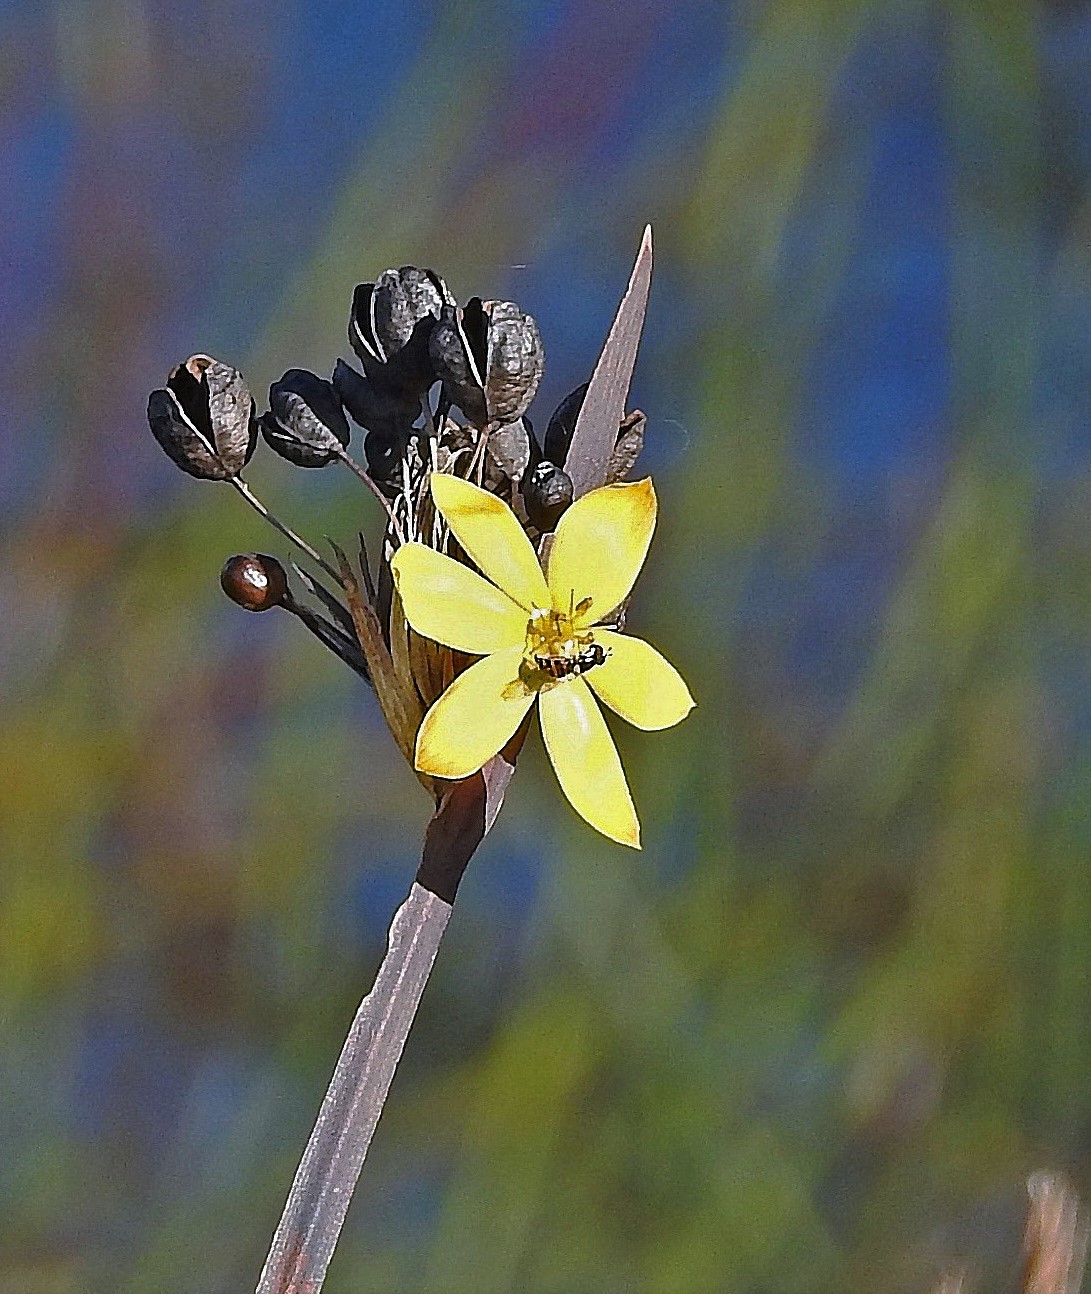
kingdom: Plantae
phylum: Tracheophyta
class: Liliopsida
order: Asparagales
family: Iridaceae
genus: Sisyrinchium
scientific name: Sisyrinchium palmifolium
